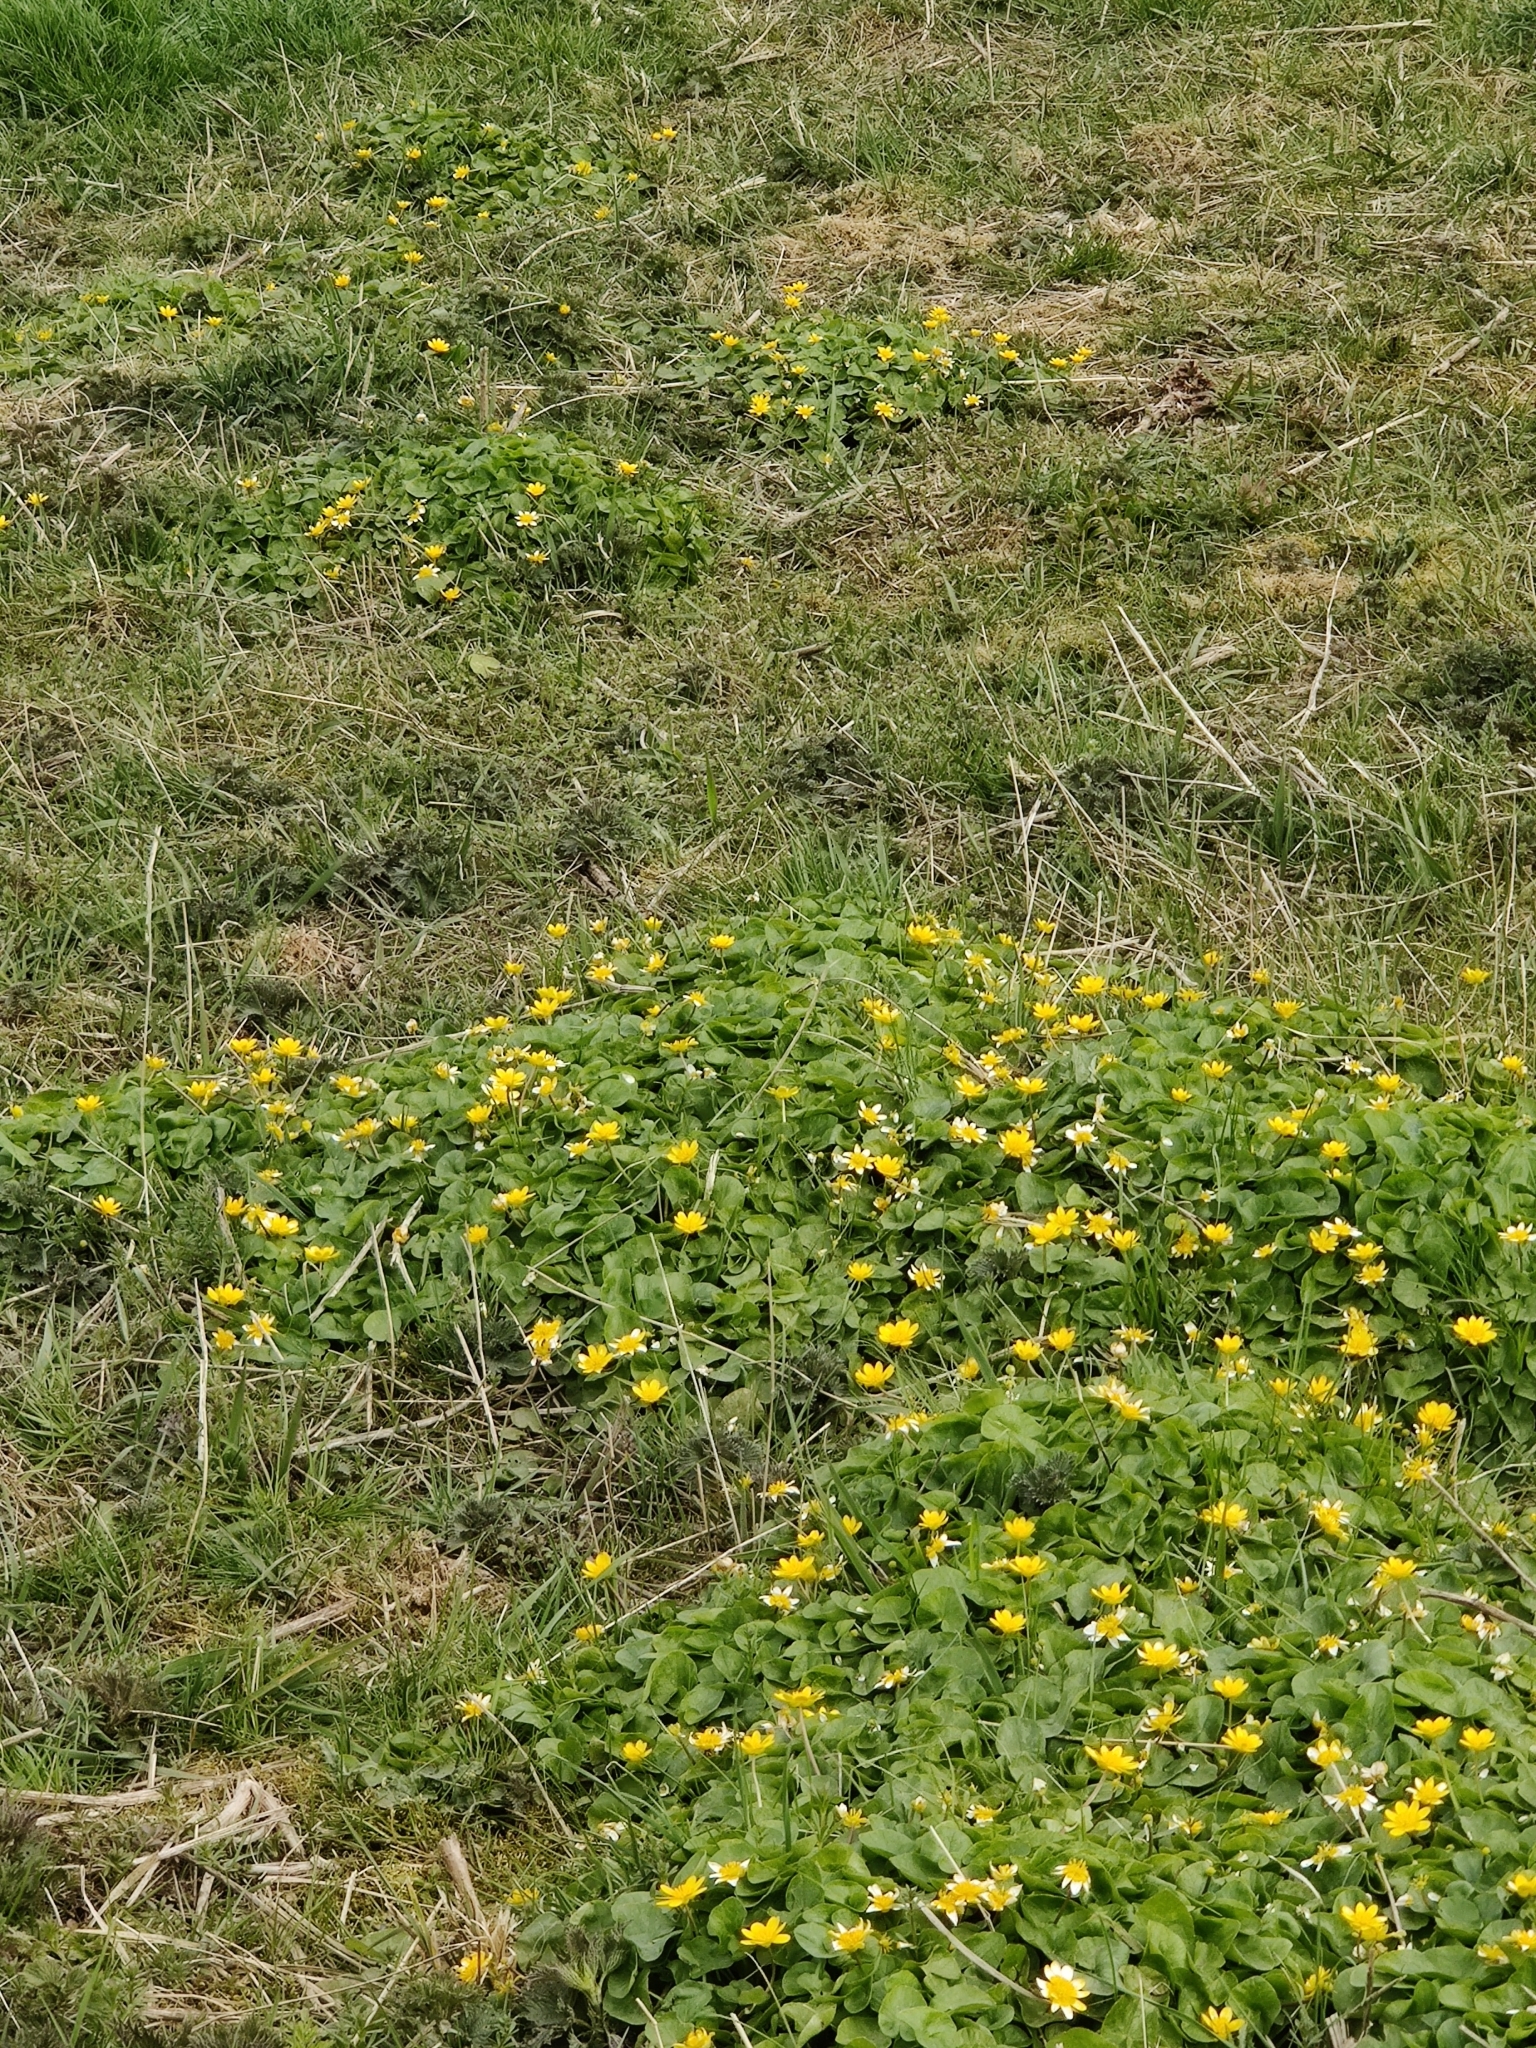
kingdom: Plantae
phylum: Tracheophyta
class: Magnoliopsida
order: Ranunculales
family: Ranunculaceae
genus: Ficaria
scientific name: Ficaria verna
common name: Lesser celandine
